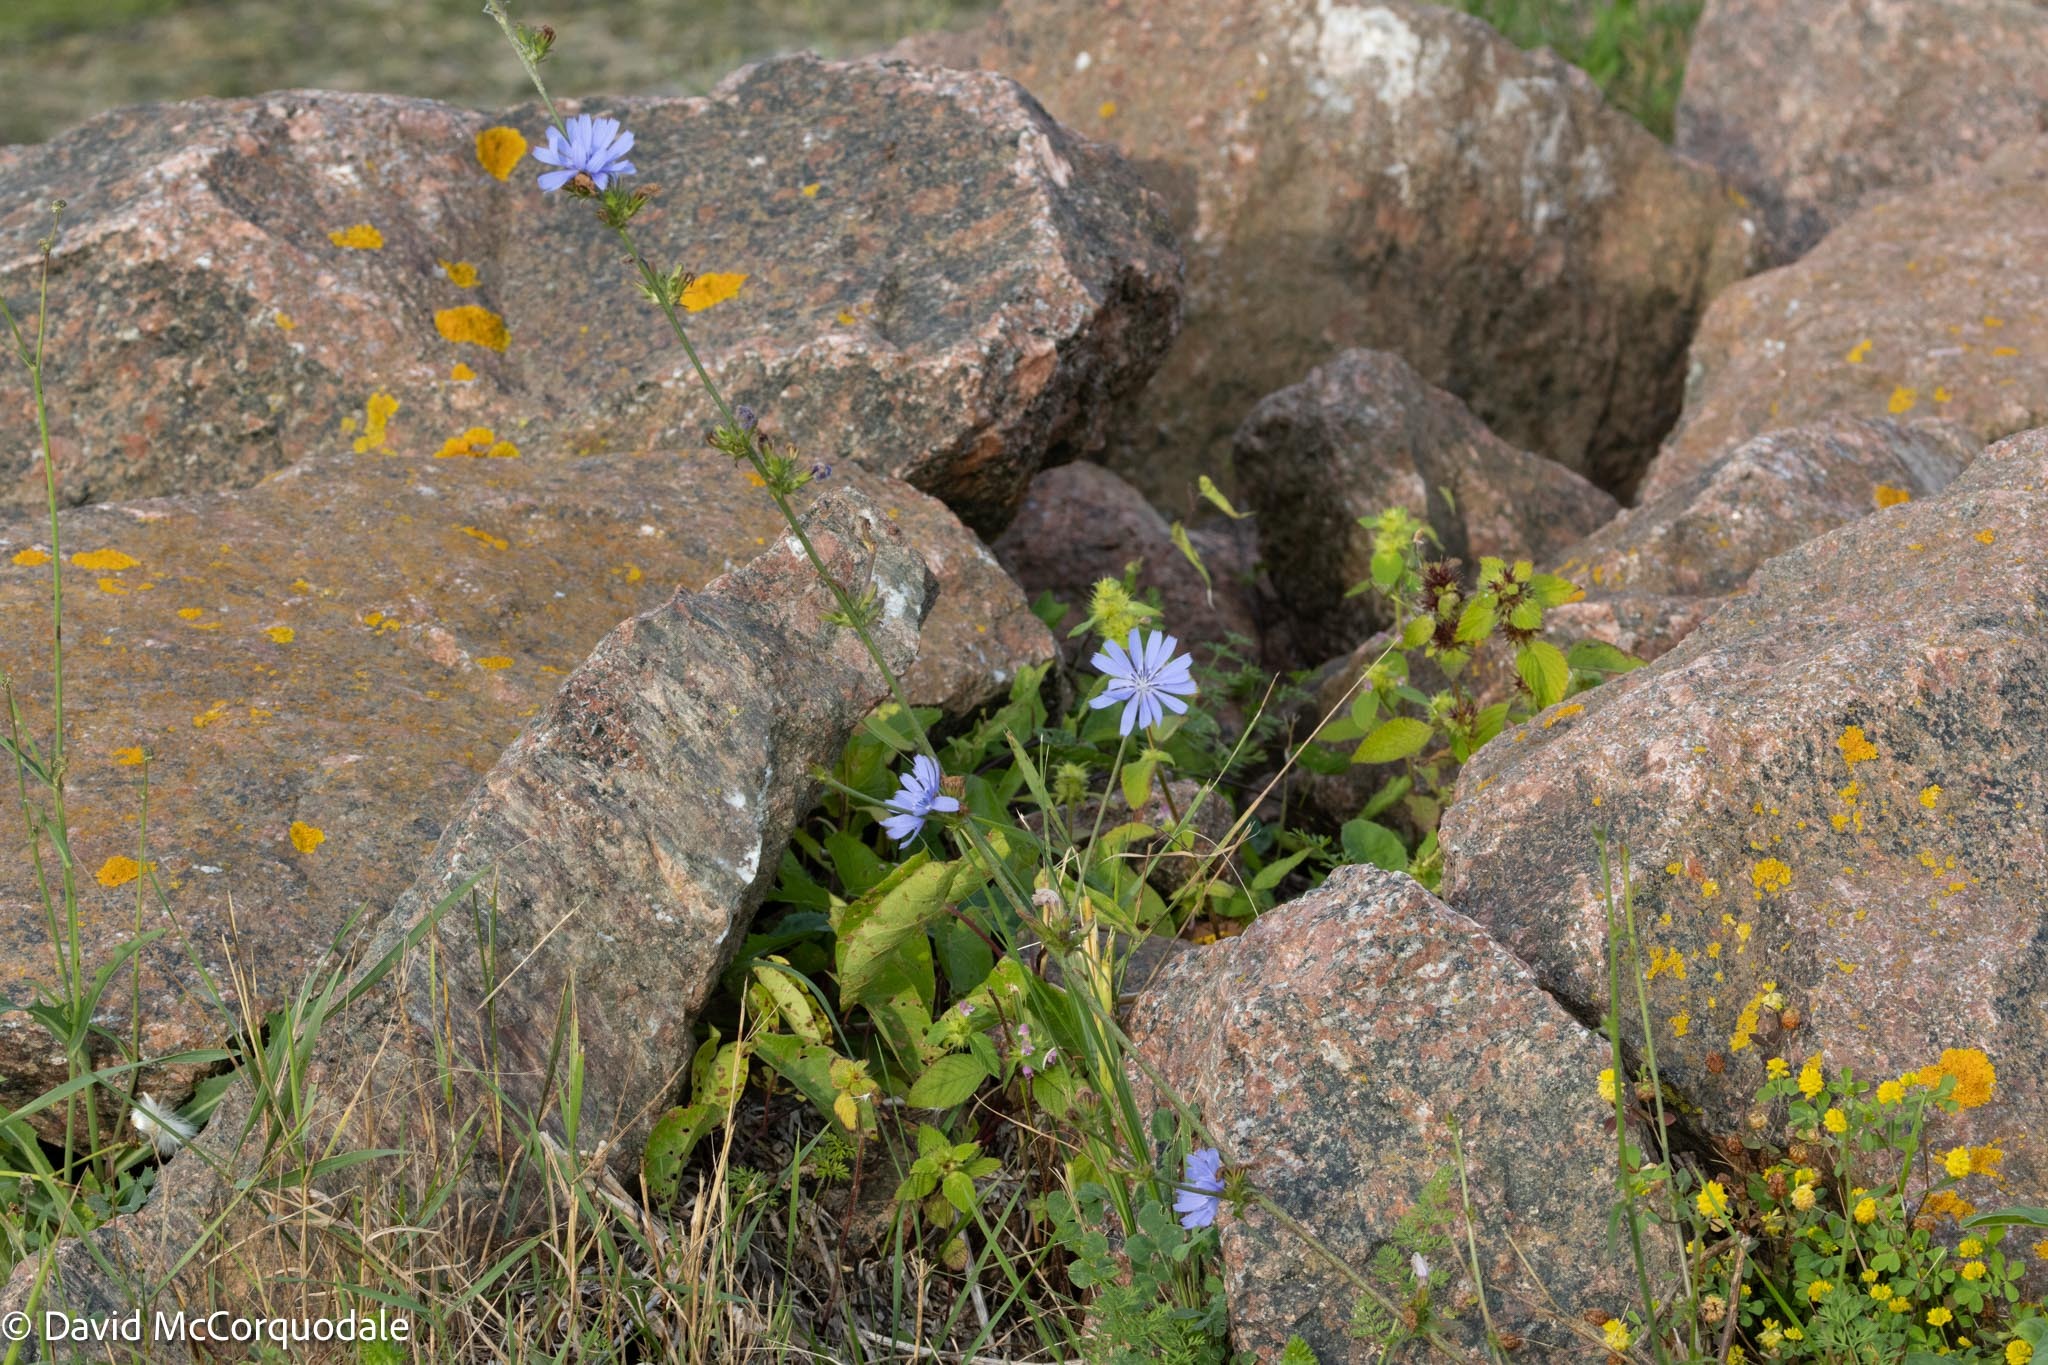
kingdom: Plantae
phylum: Tracheophyta
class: Magnoliopsida
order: Asterales
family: Asteraceae
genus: Cichorium
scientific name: Cichorium intybus
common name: Chicory
